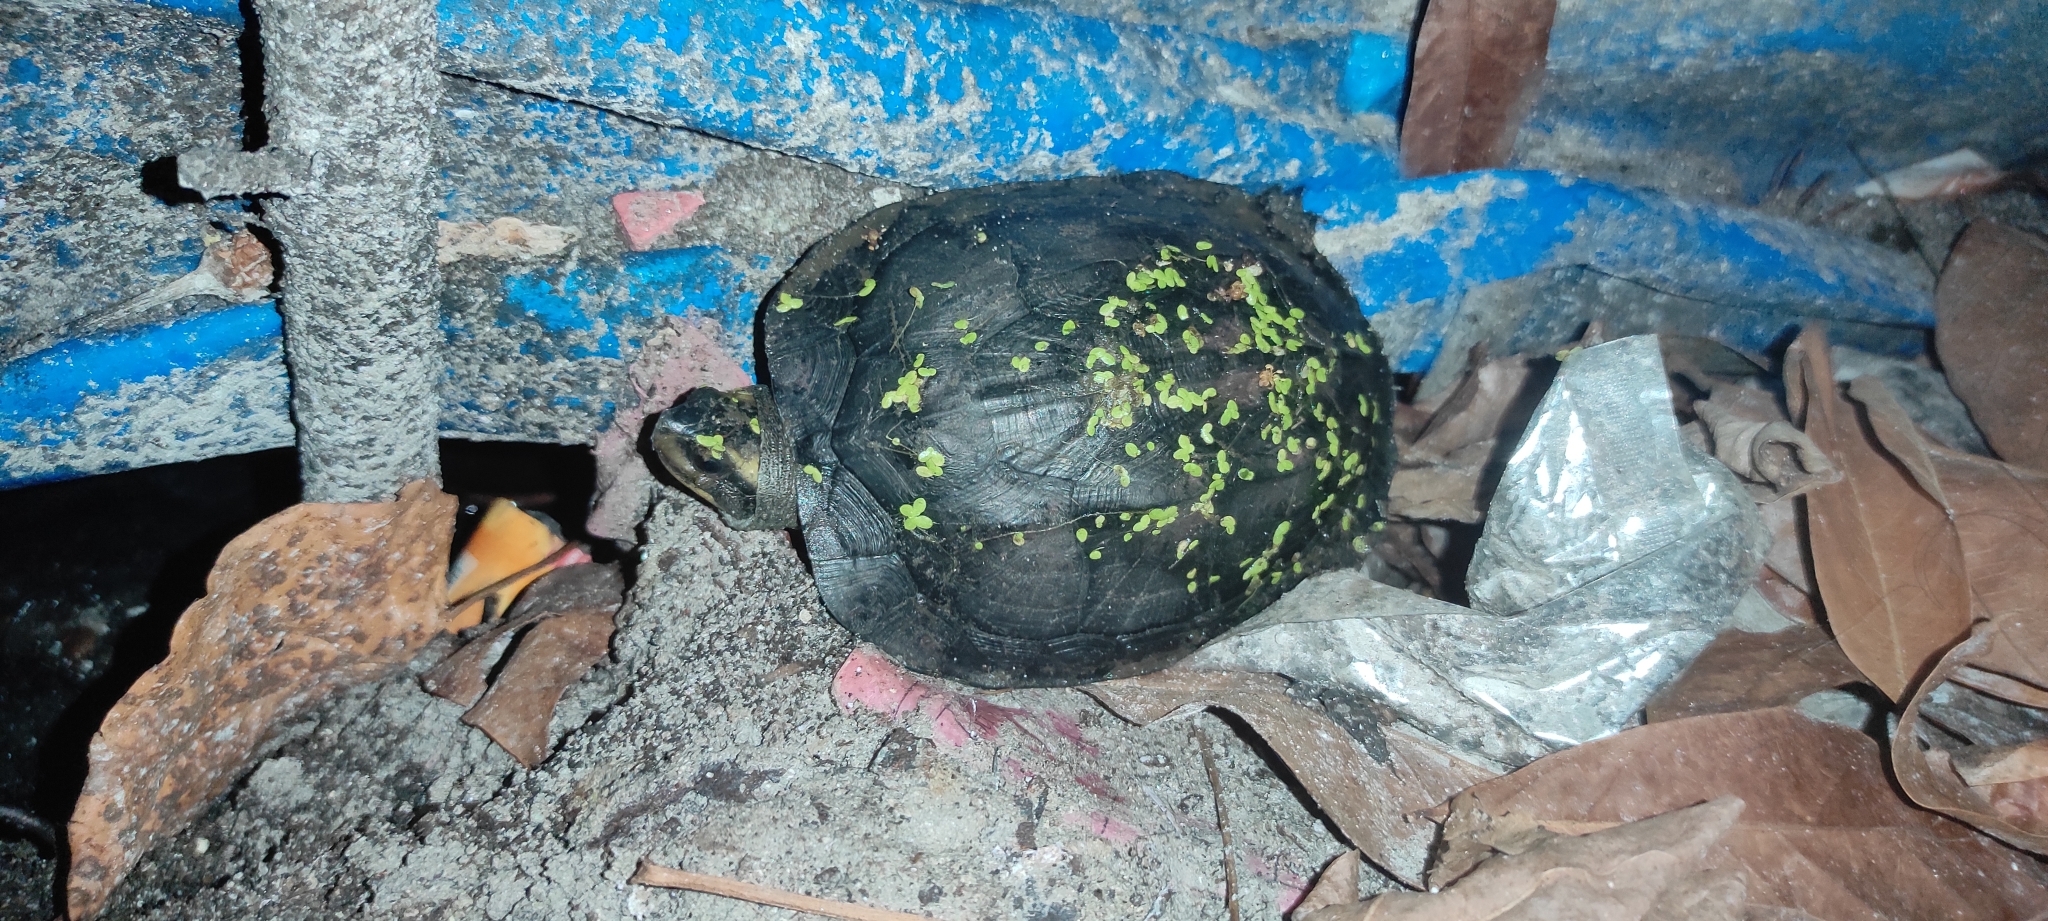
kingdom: Animalia
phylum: Chordata
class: Testudines
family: Geoemydidae
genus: Melanochelys
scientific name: Melanochelys trijuga
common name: Indian black turtle
